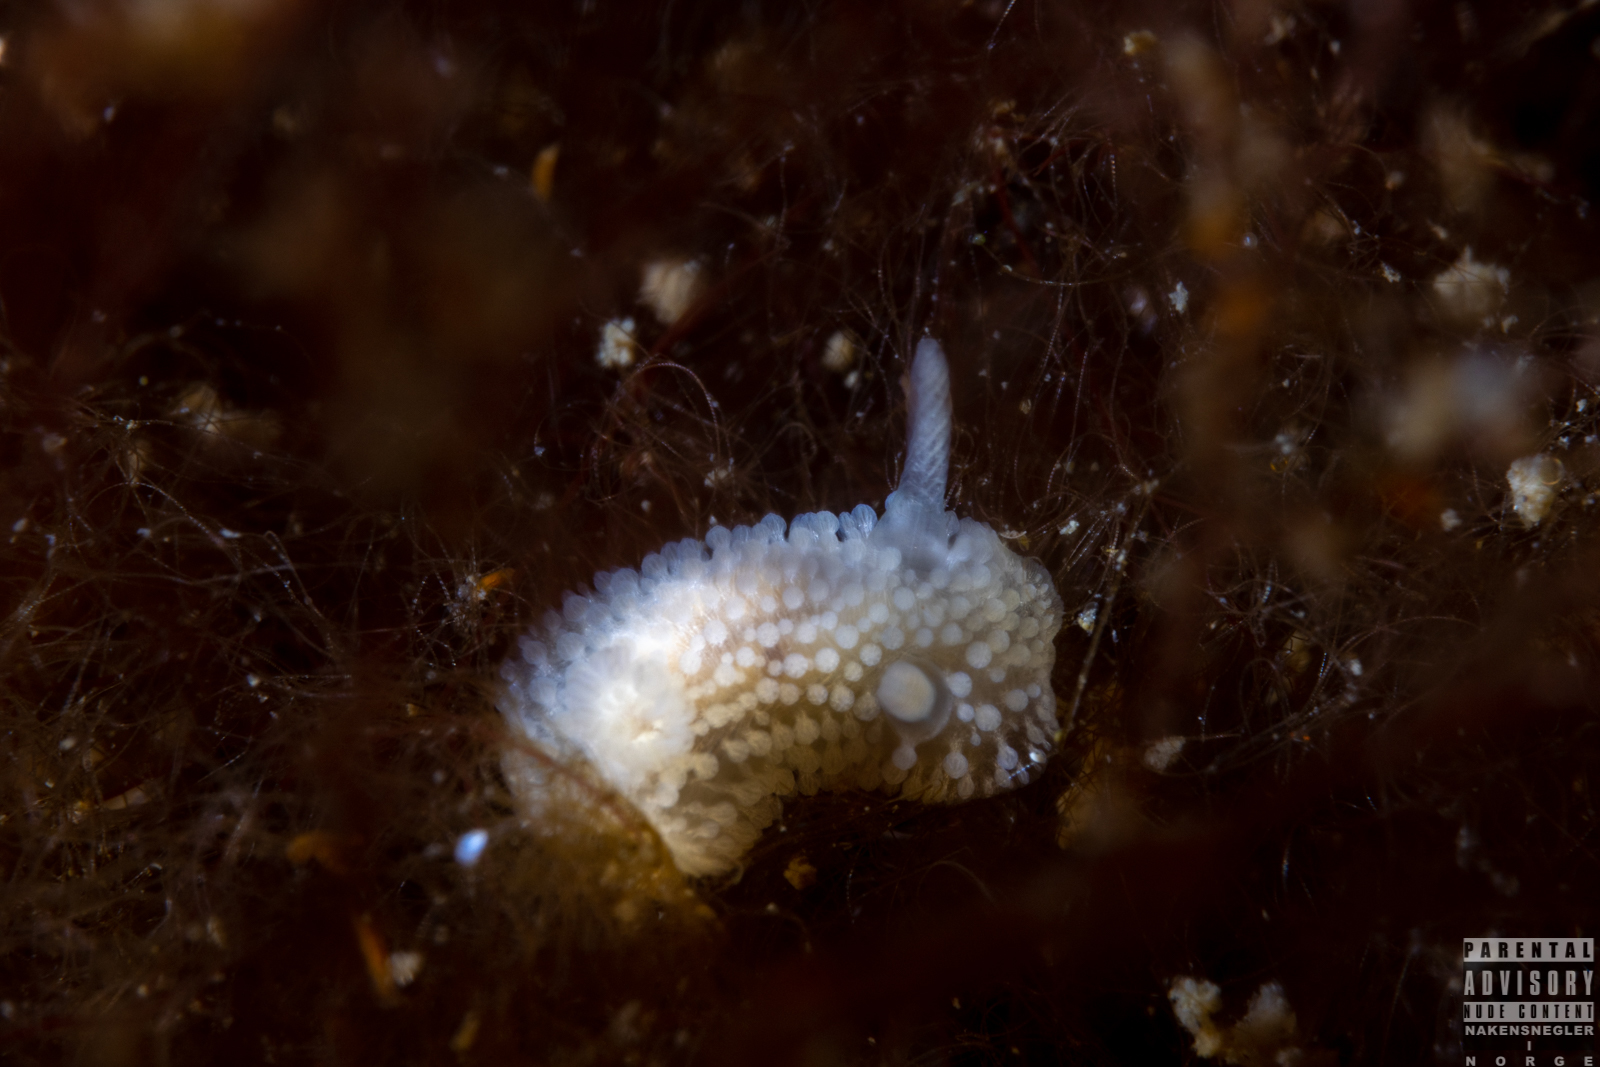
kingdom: Animalia
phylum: Mollusca
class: Gastropoda
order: Nudibranchia
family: Onchidorididae
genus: Onchidoris
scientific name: Onchidoris muricata
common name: Rough doris
